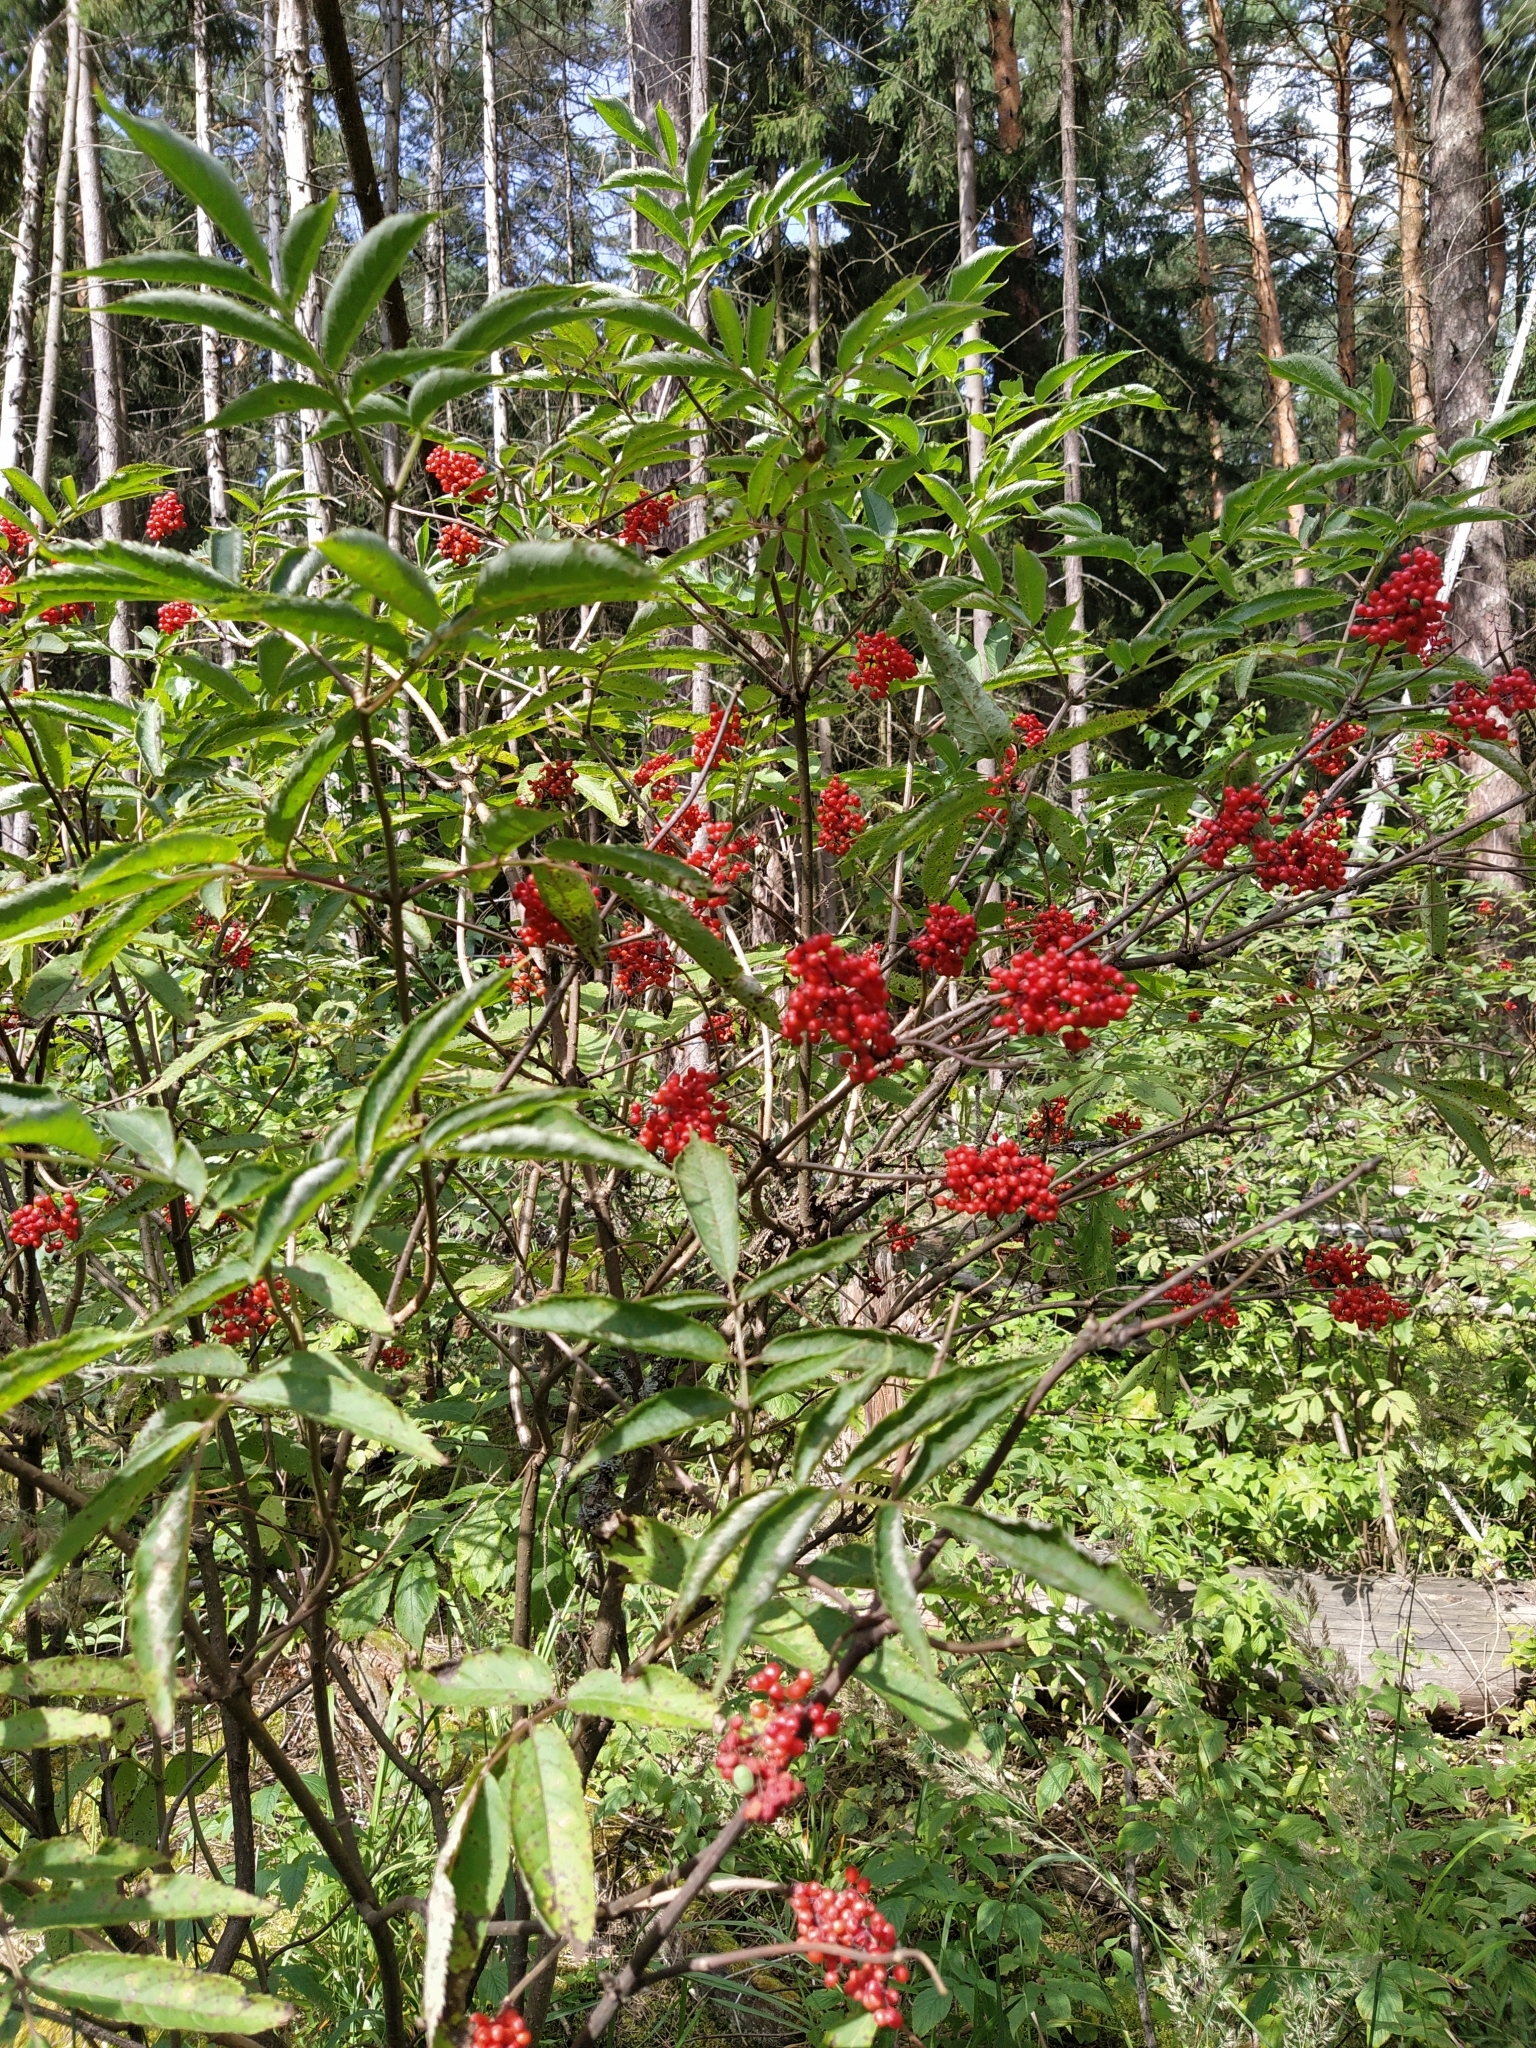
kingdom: Plantae
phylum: Tracheophyta
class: Magnoliopsida
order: Dipsacales
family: Viburnaceae
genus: Sambucus
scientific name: Sambucus racemosa
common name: Red-berried elder
